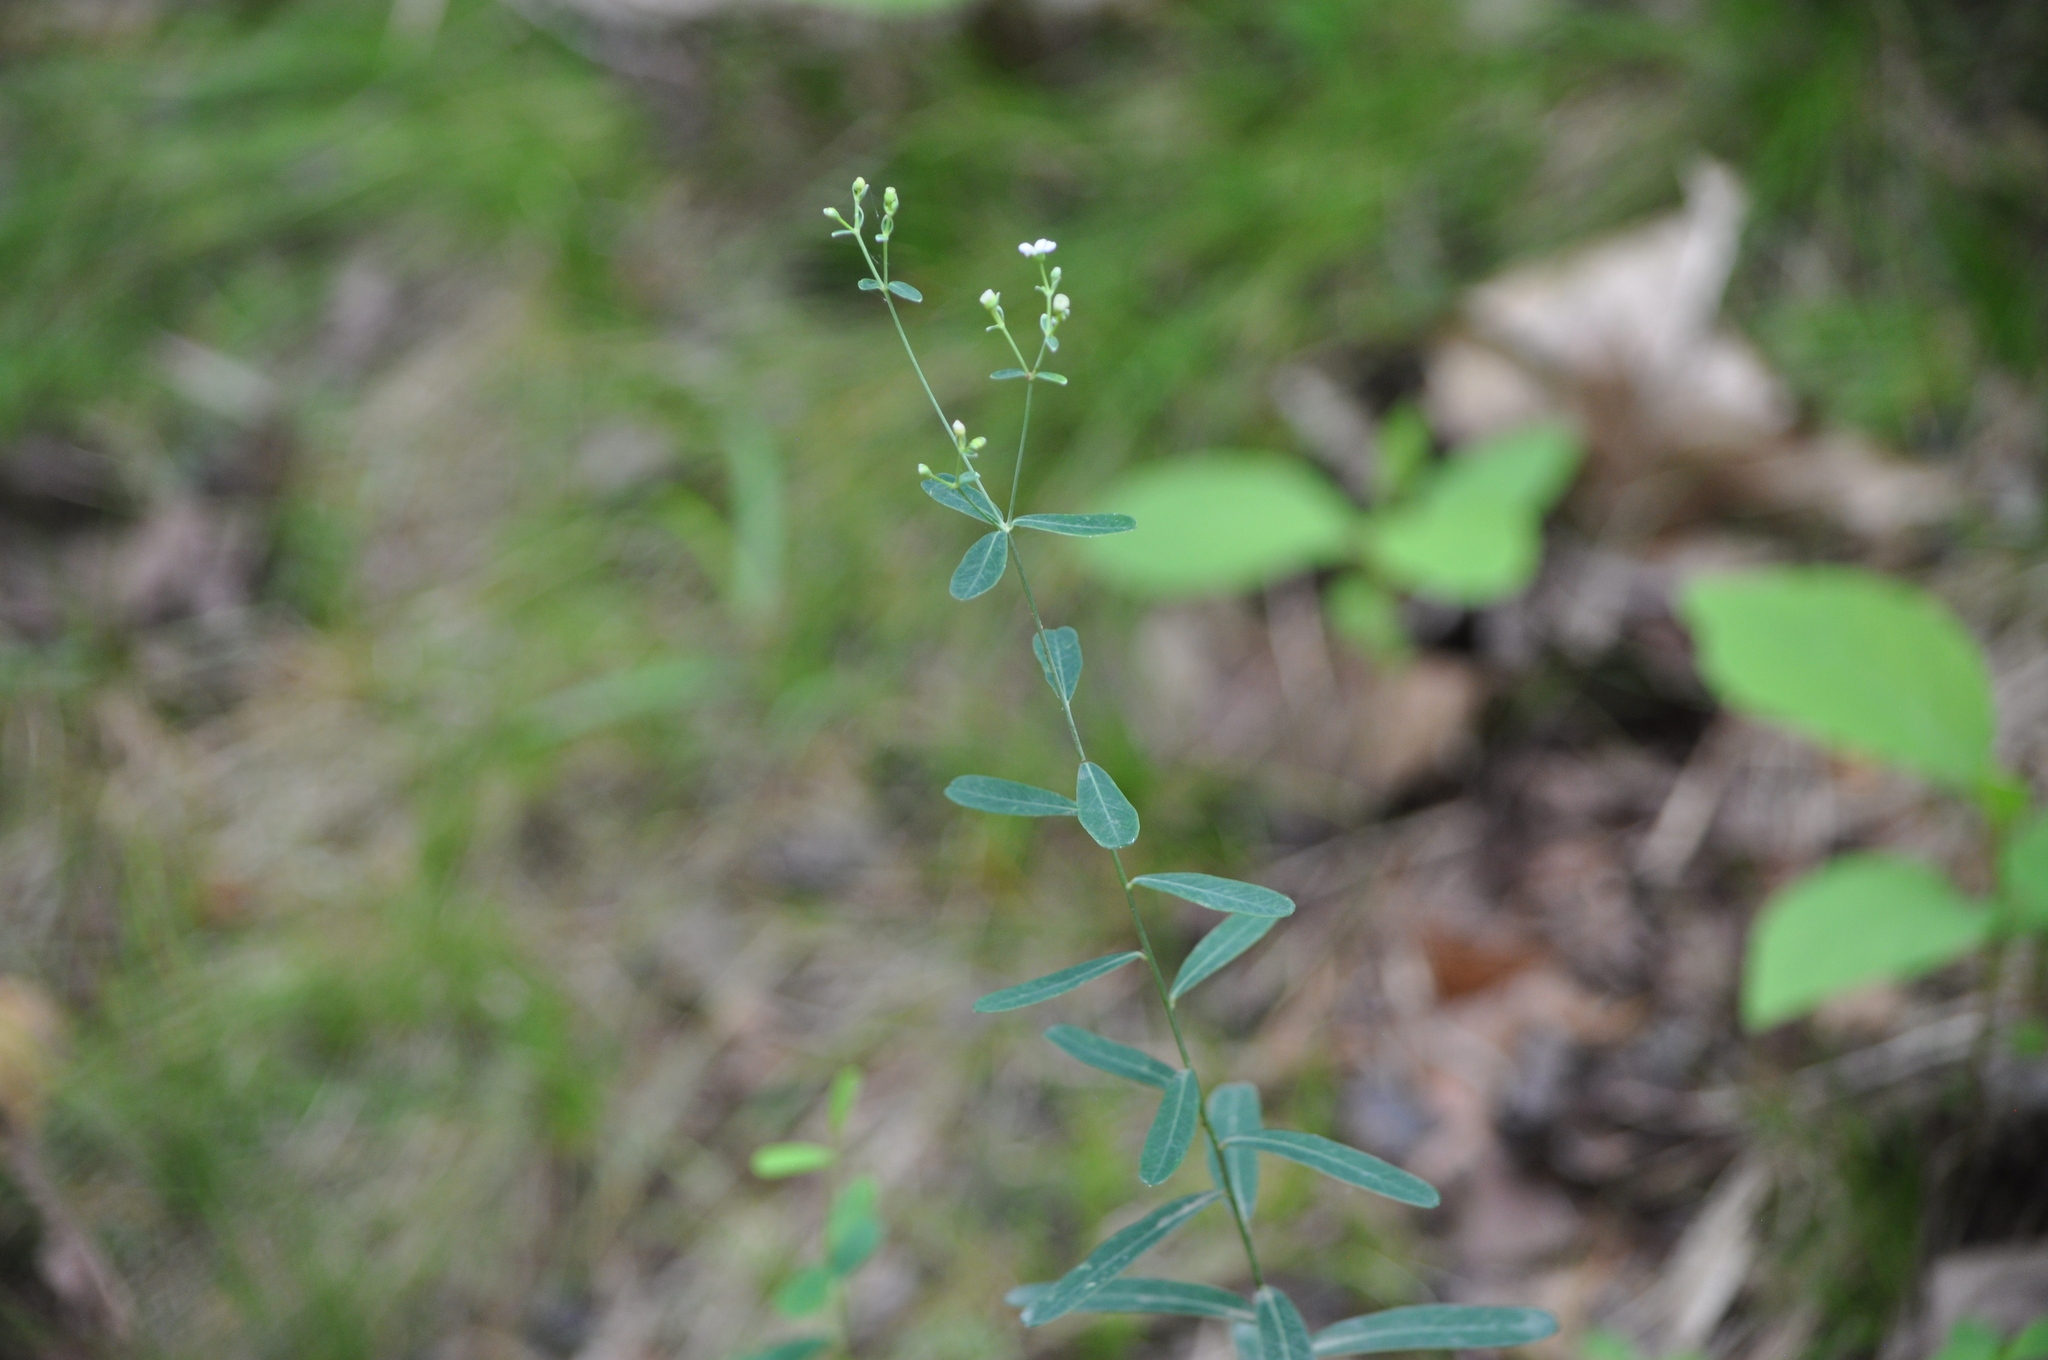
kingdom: Plantae
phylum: Tracheophyta
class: Magnoliopsida
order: Malpighiales
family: Euphorbiaceae
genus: Euphorbia
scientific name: Euphorbia corollata
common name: Flowering spurge
